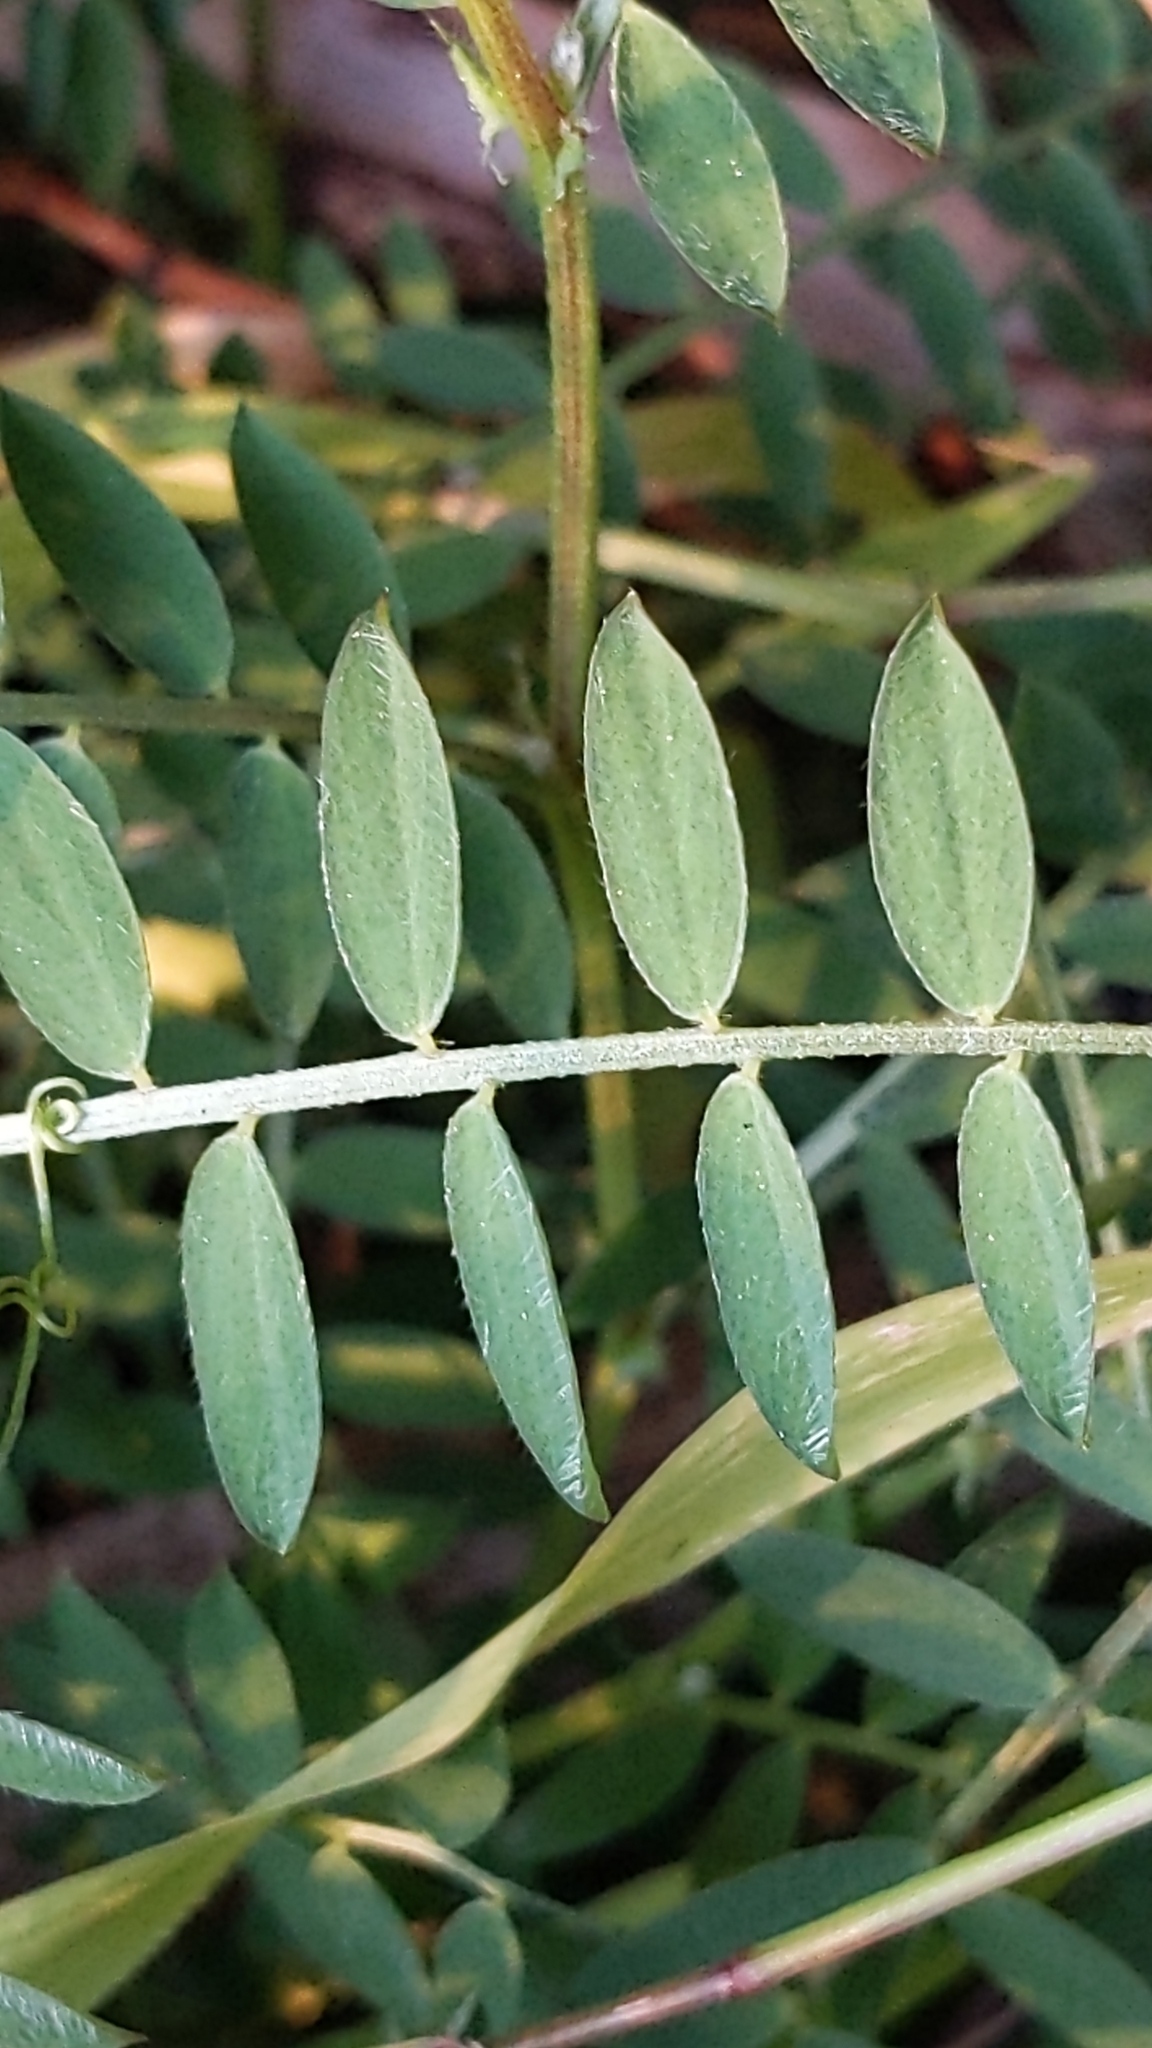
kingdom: Plantae
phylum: Tracheophyta
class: Magnoliopsida
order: Fabales
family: Fabaceae
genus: Vicia
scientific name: Vicia disperma
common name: European vetch
